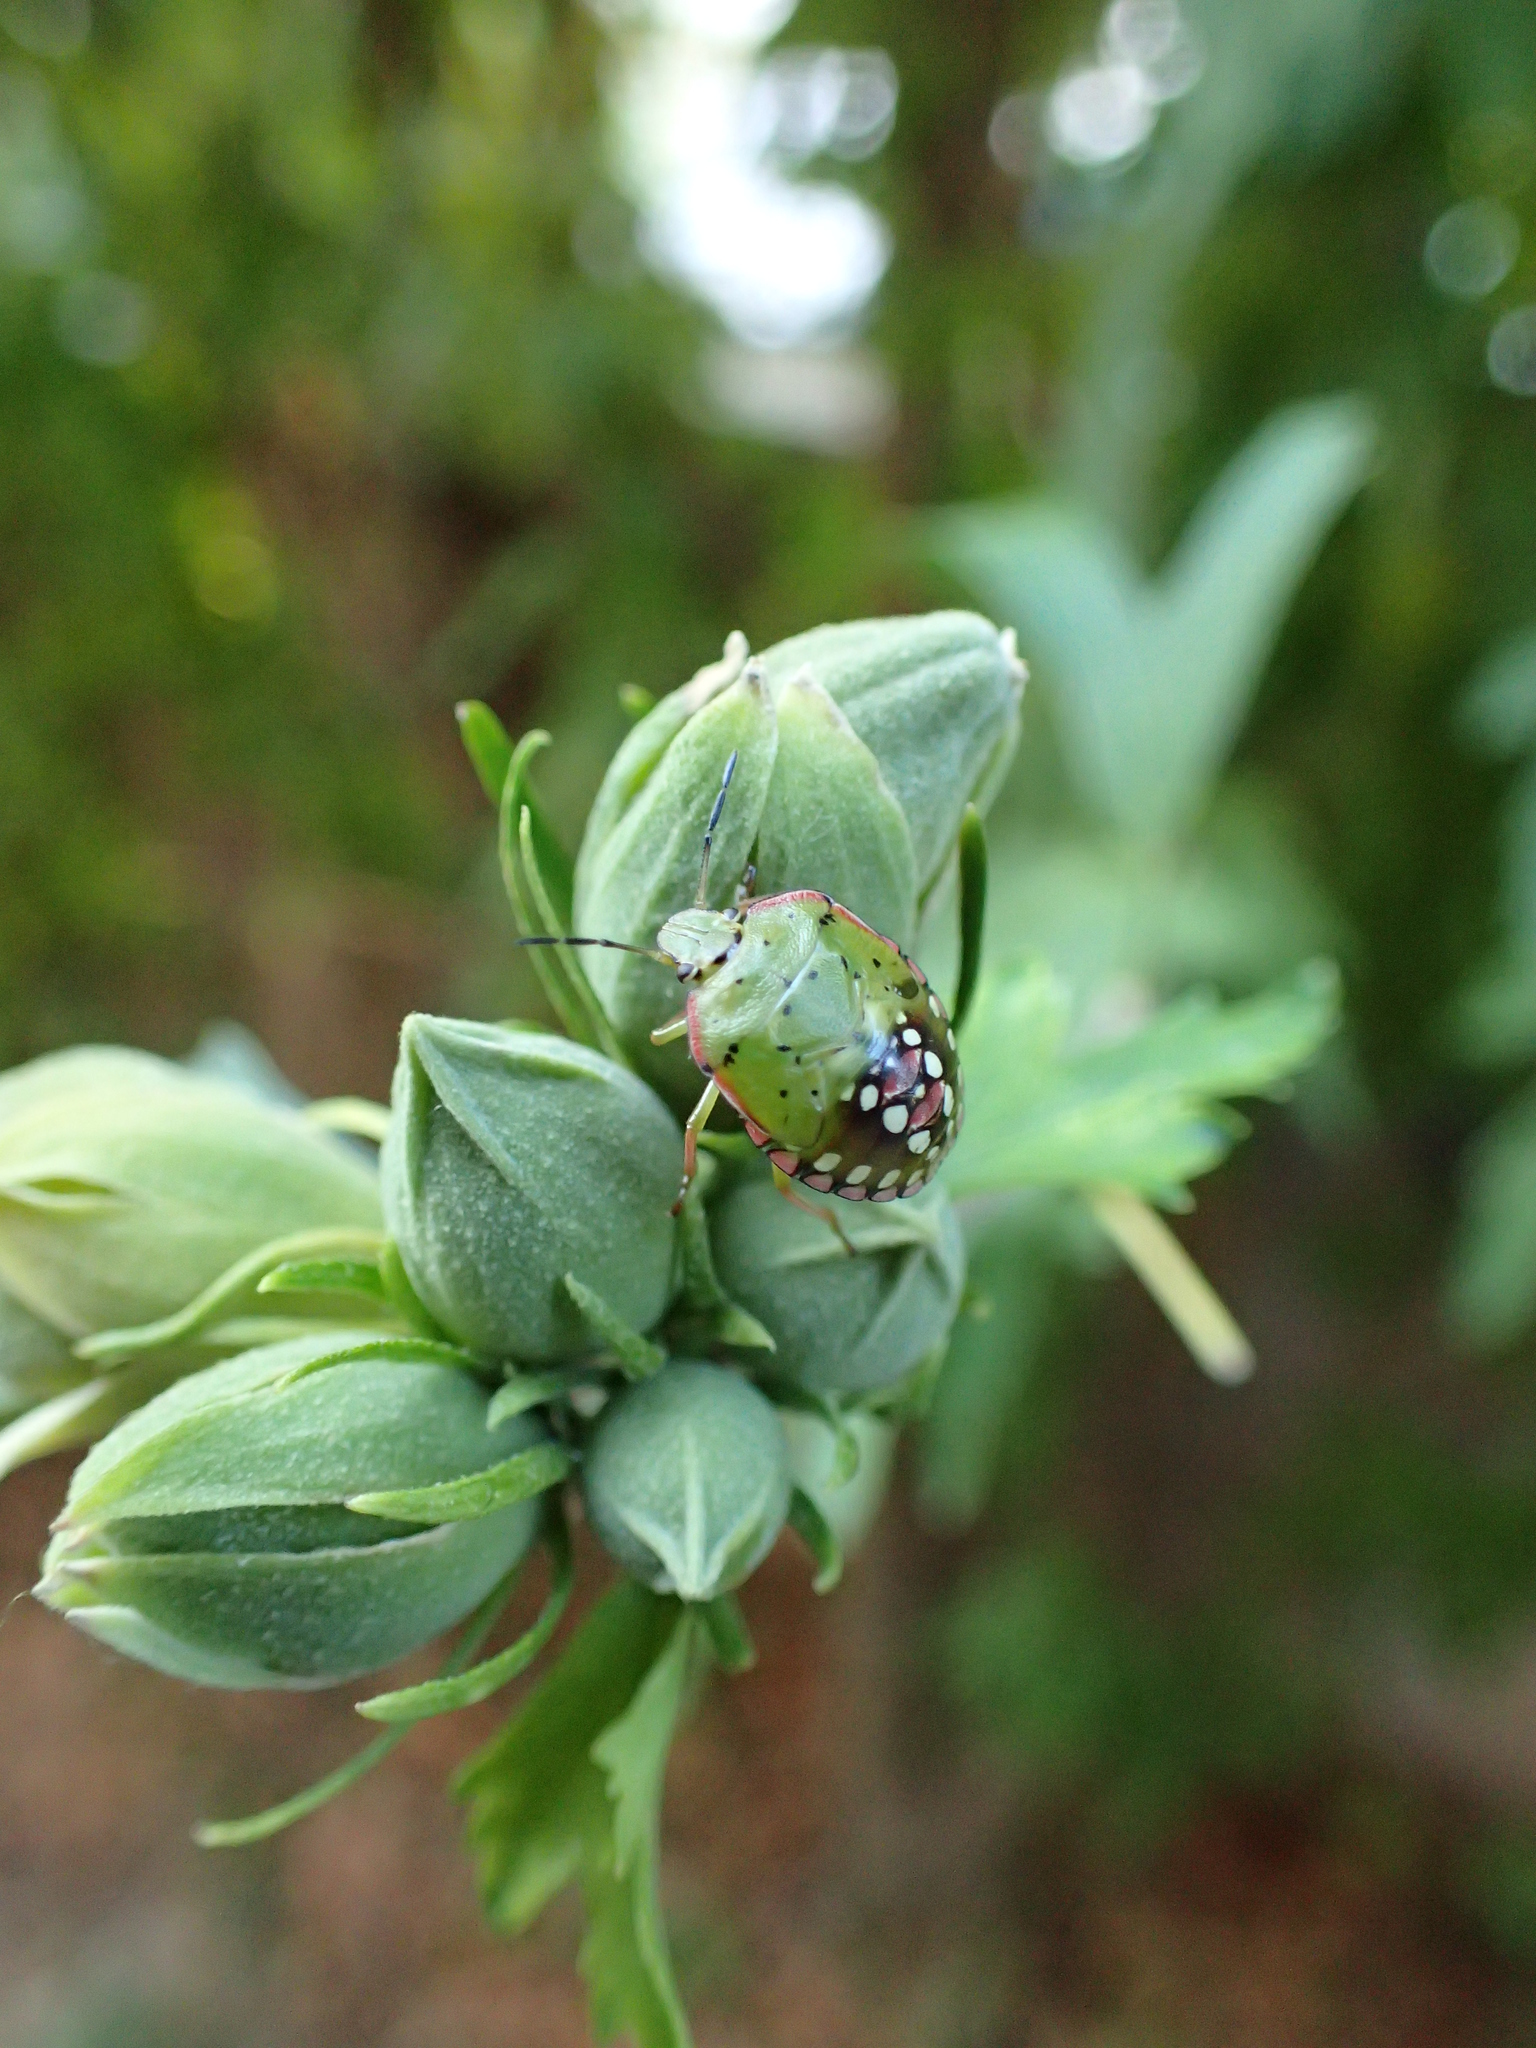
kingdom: Animalia
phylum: Arthropoda
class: Insecta
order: Hemiptera
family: Pentatomidae
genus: Nezara
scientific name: Nezara viridula
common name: Southern green stink bug
